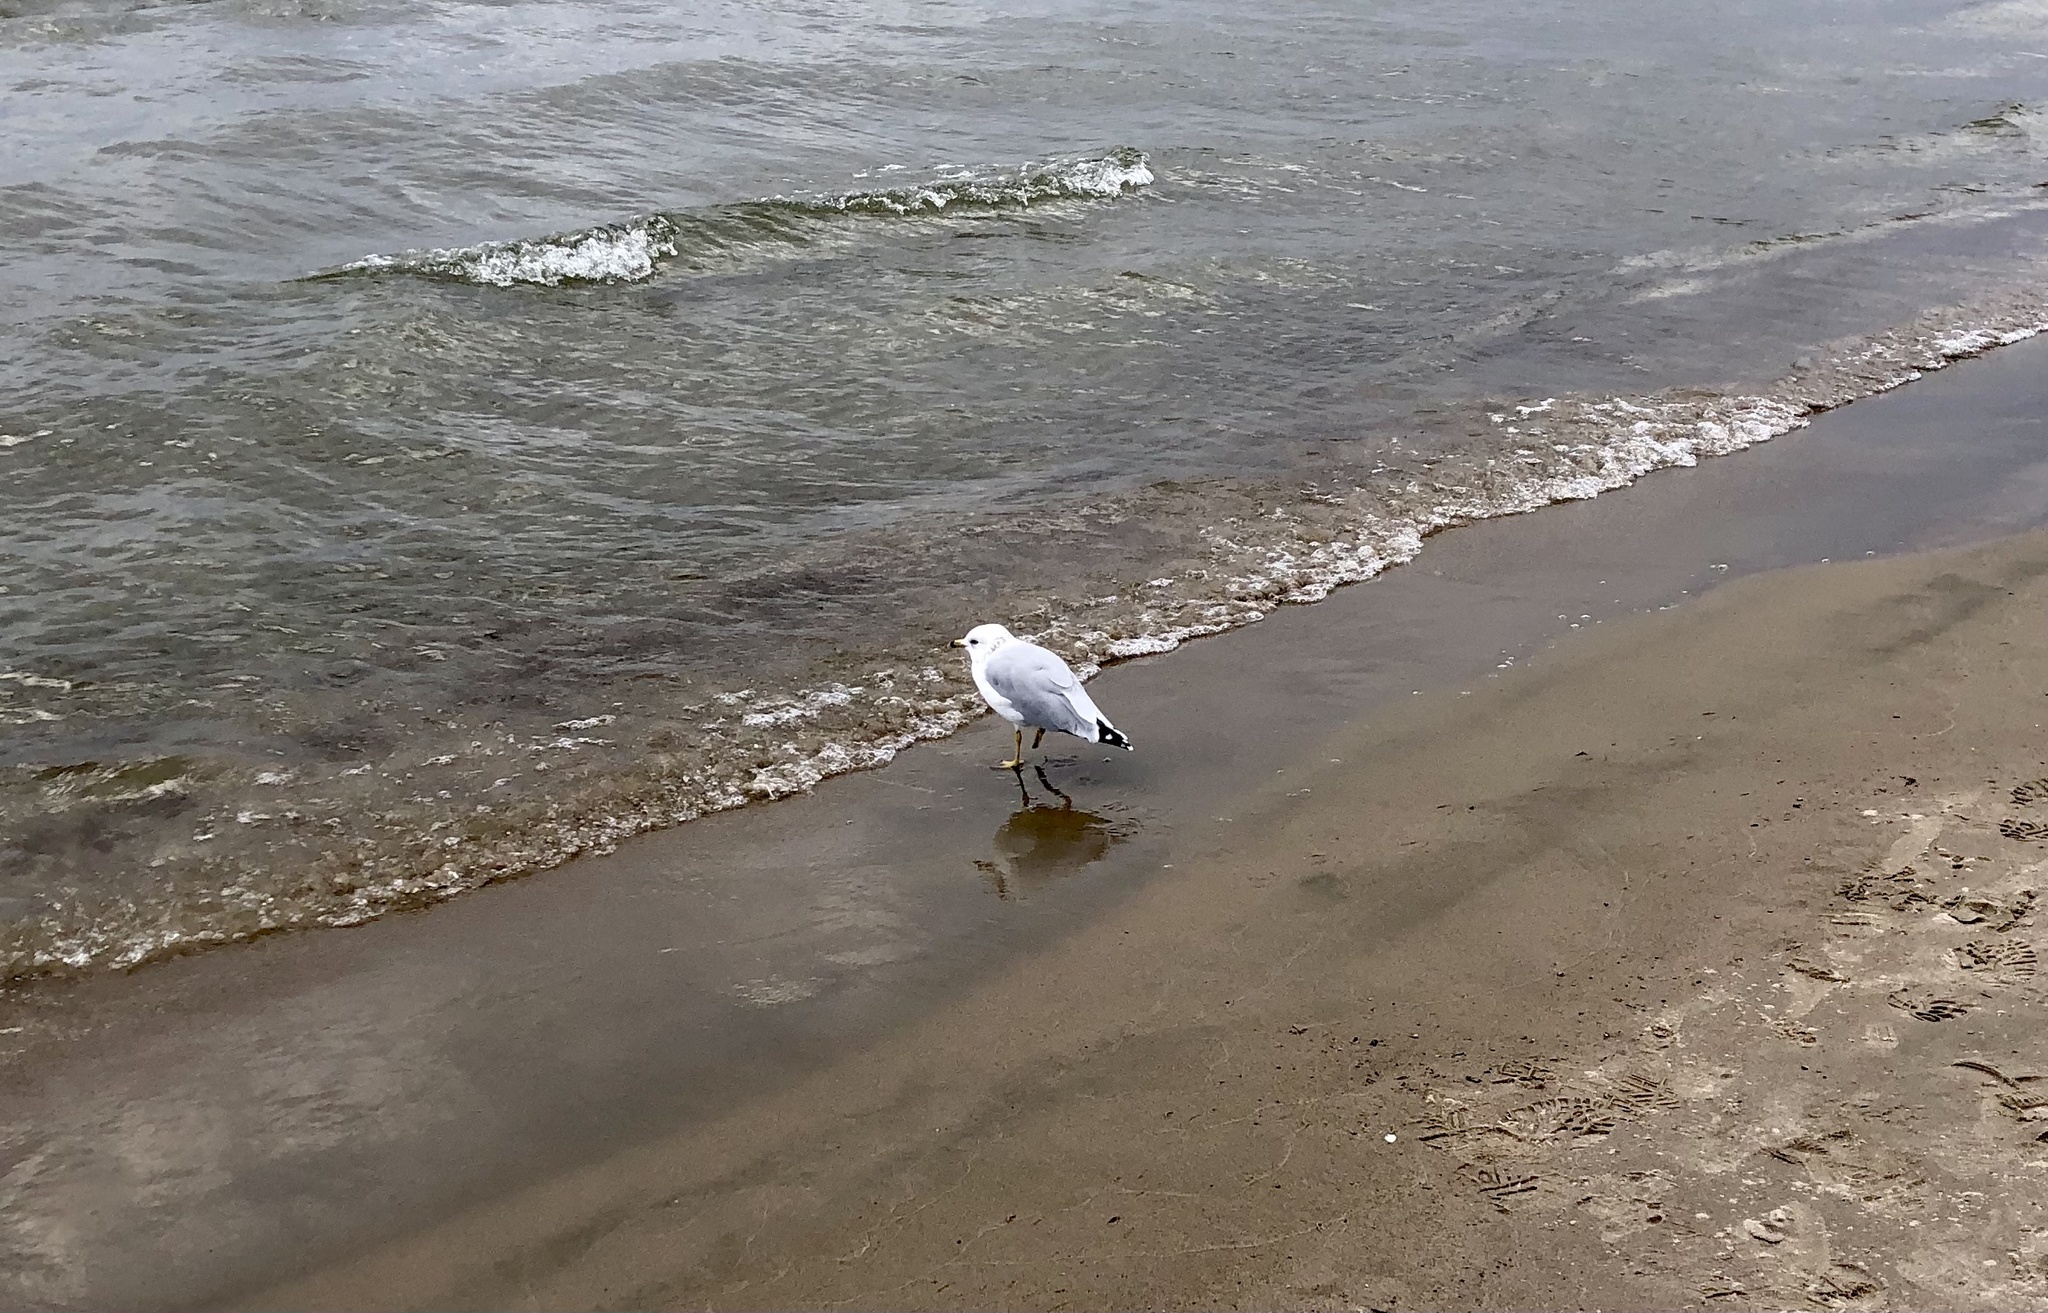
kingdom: Animalia
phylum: Chordata
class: Aves
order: Charadriiformes
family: Laridae
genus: Larus
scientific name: Larus delawarensis
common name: Ring-billed gull
